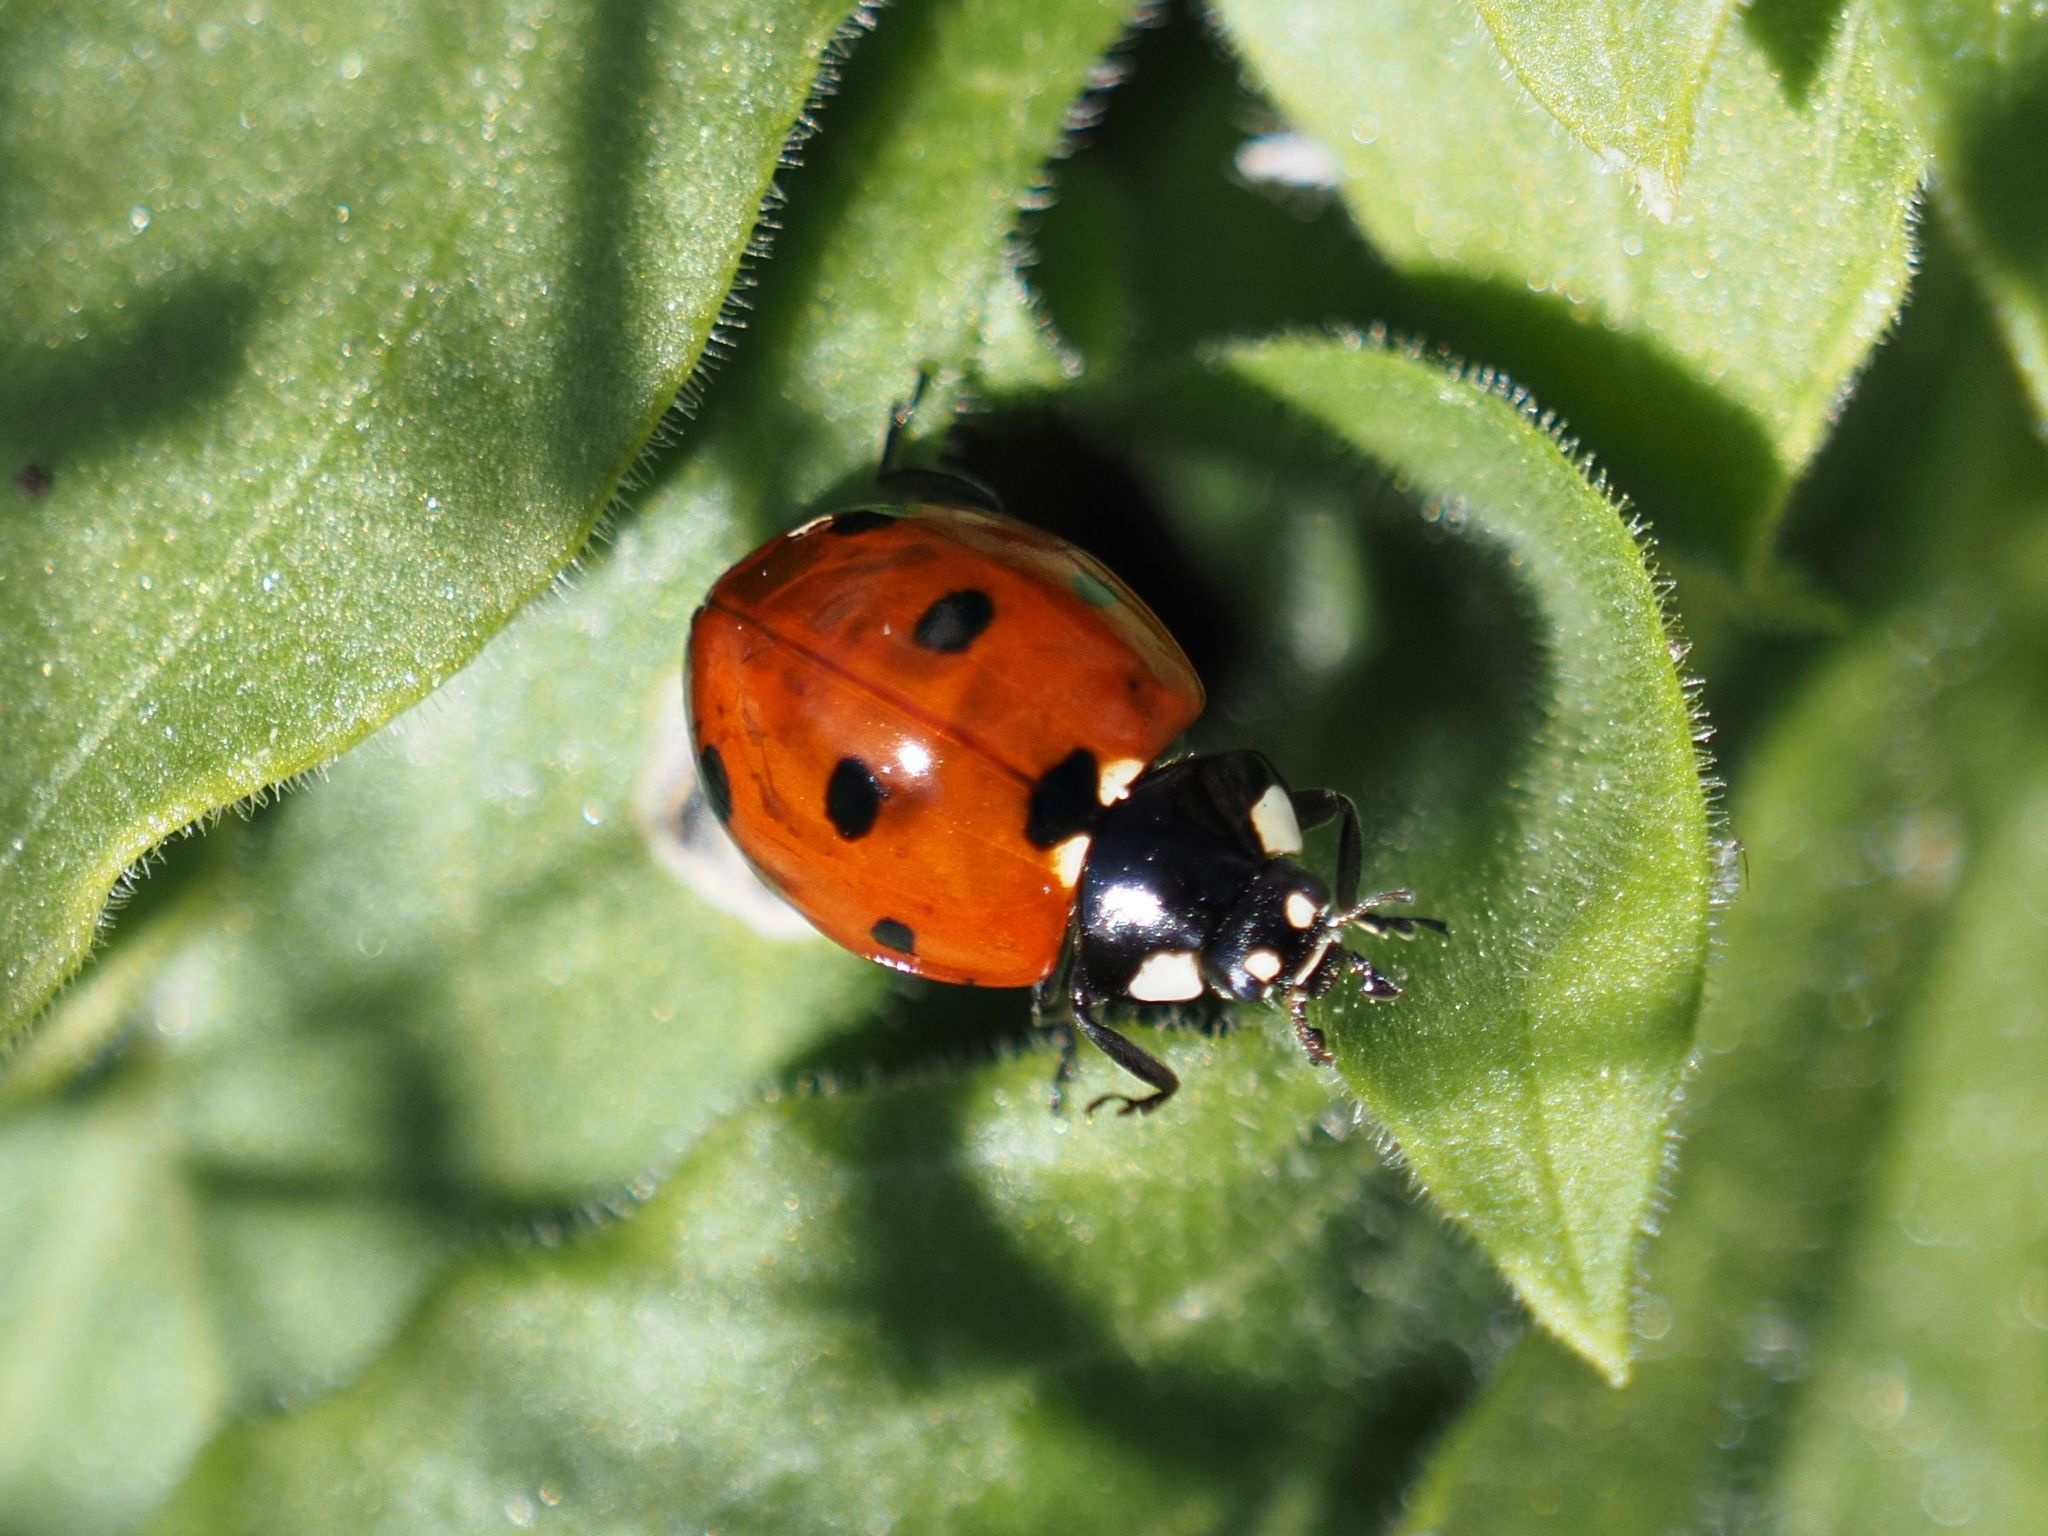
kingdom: Animalia
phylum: Arthropoda
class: Insecta
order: Coleoptera
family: Coccinellidae
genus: Coccinella
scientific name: Coccinella septempunctata
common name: Sevenspotted lady beetle
